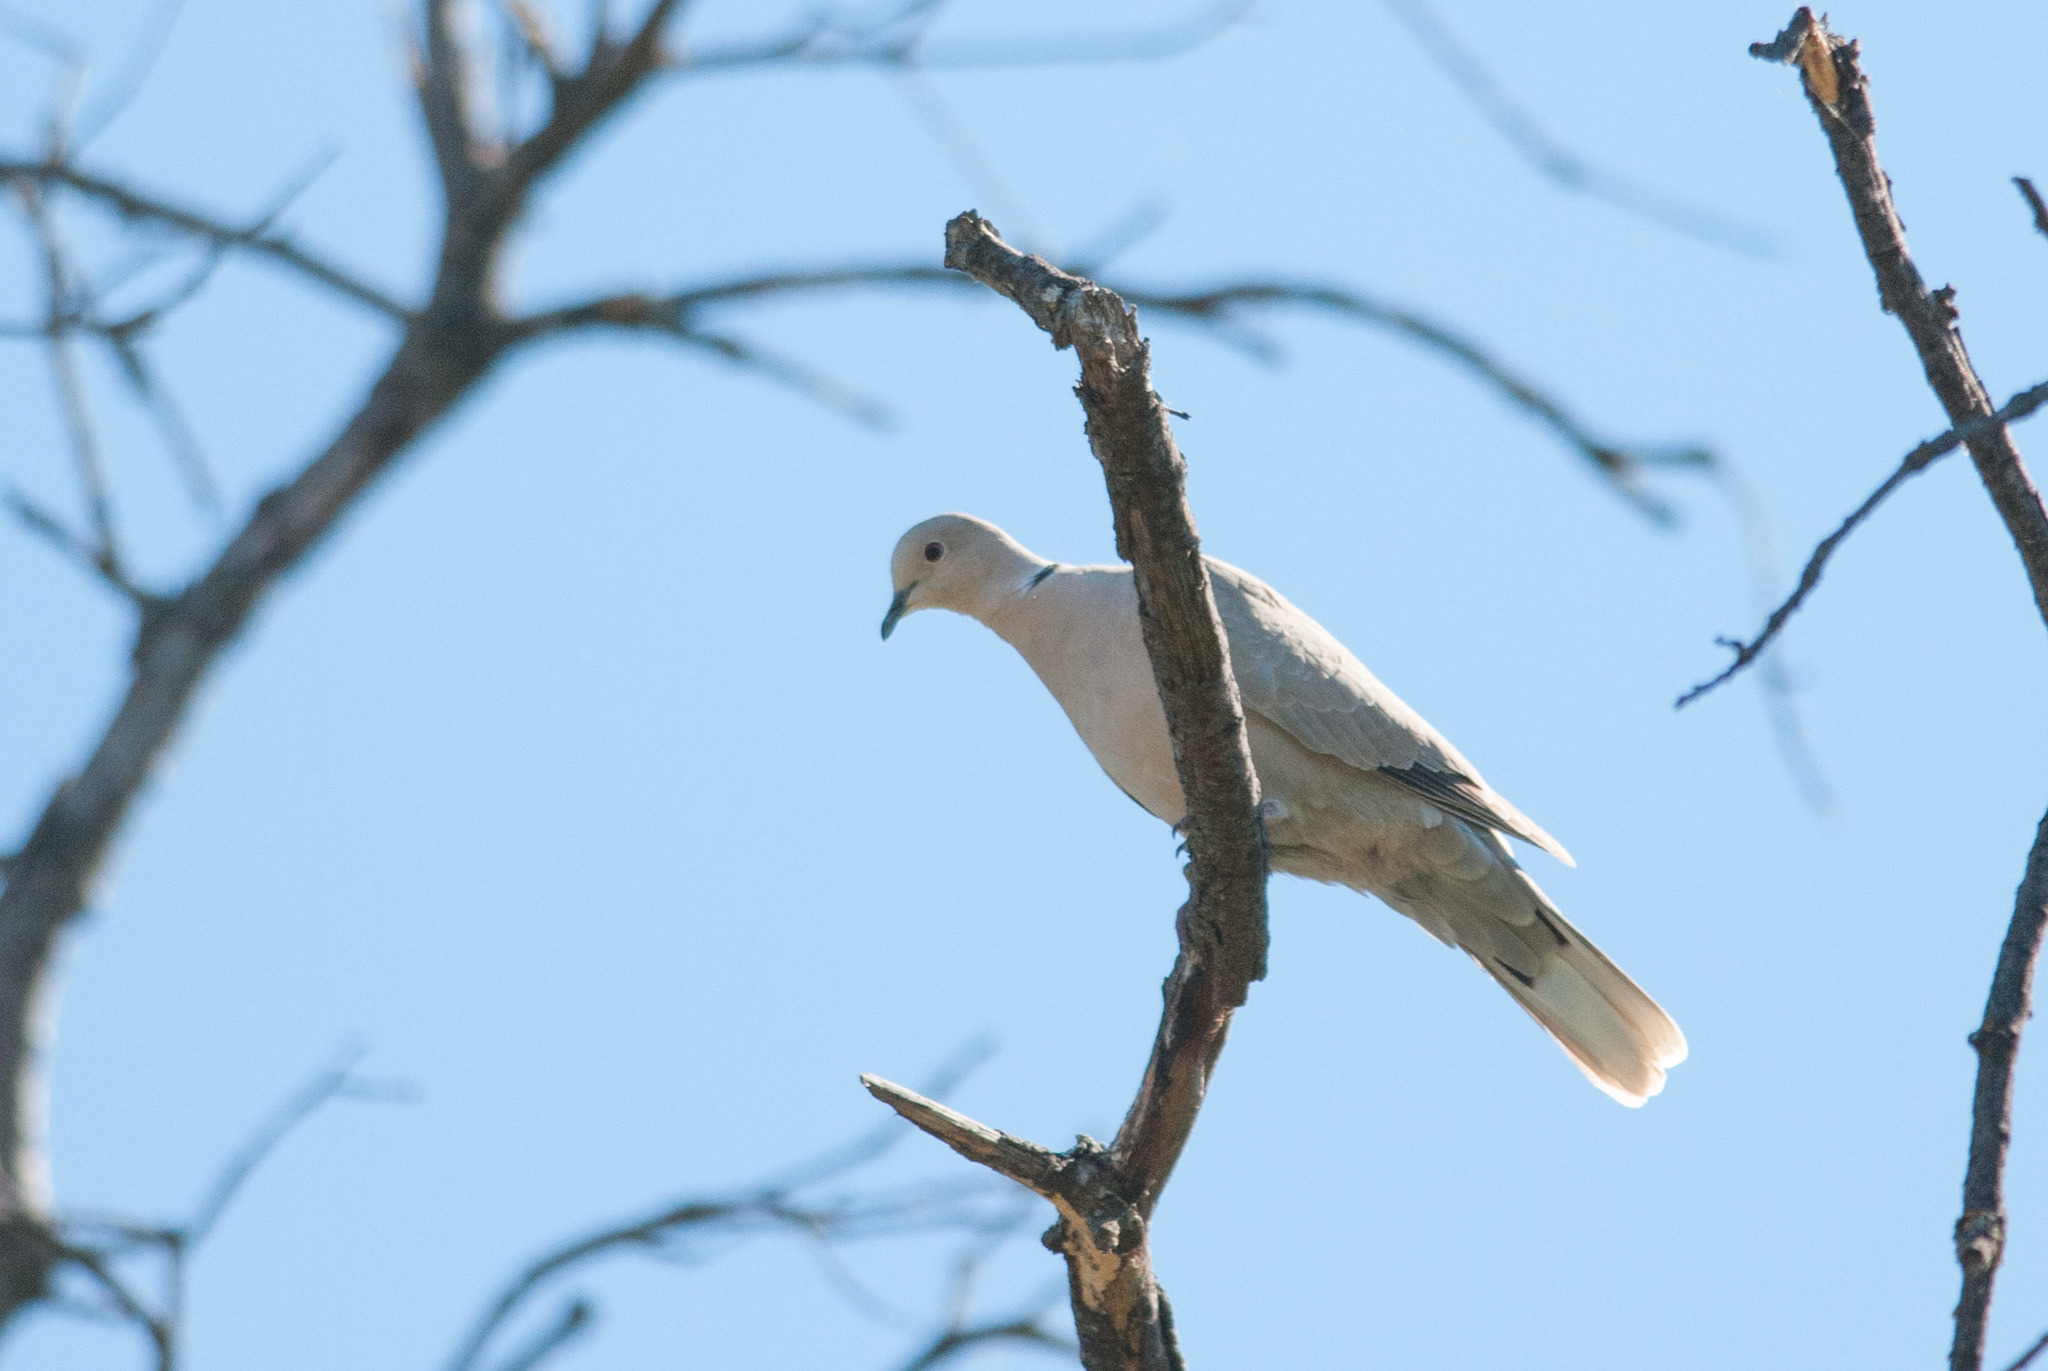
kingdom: Animalia
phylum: Chordata
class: Aves
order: Columbiformes
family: Columbidae
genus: Streptopelia
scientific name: Streptopelia decaocto
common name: Eurasian collared dove
